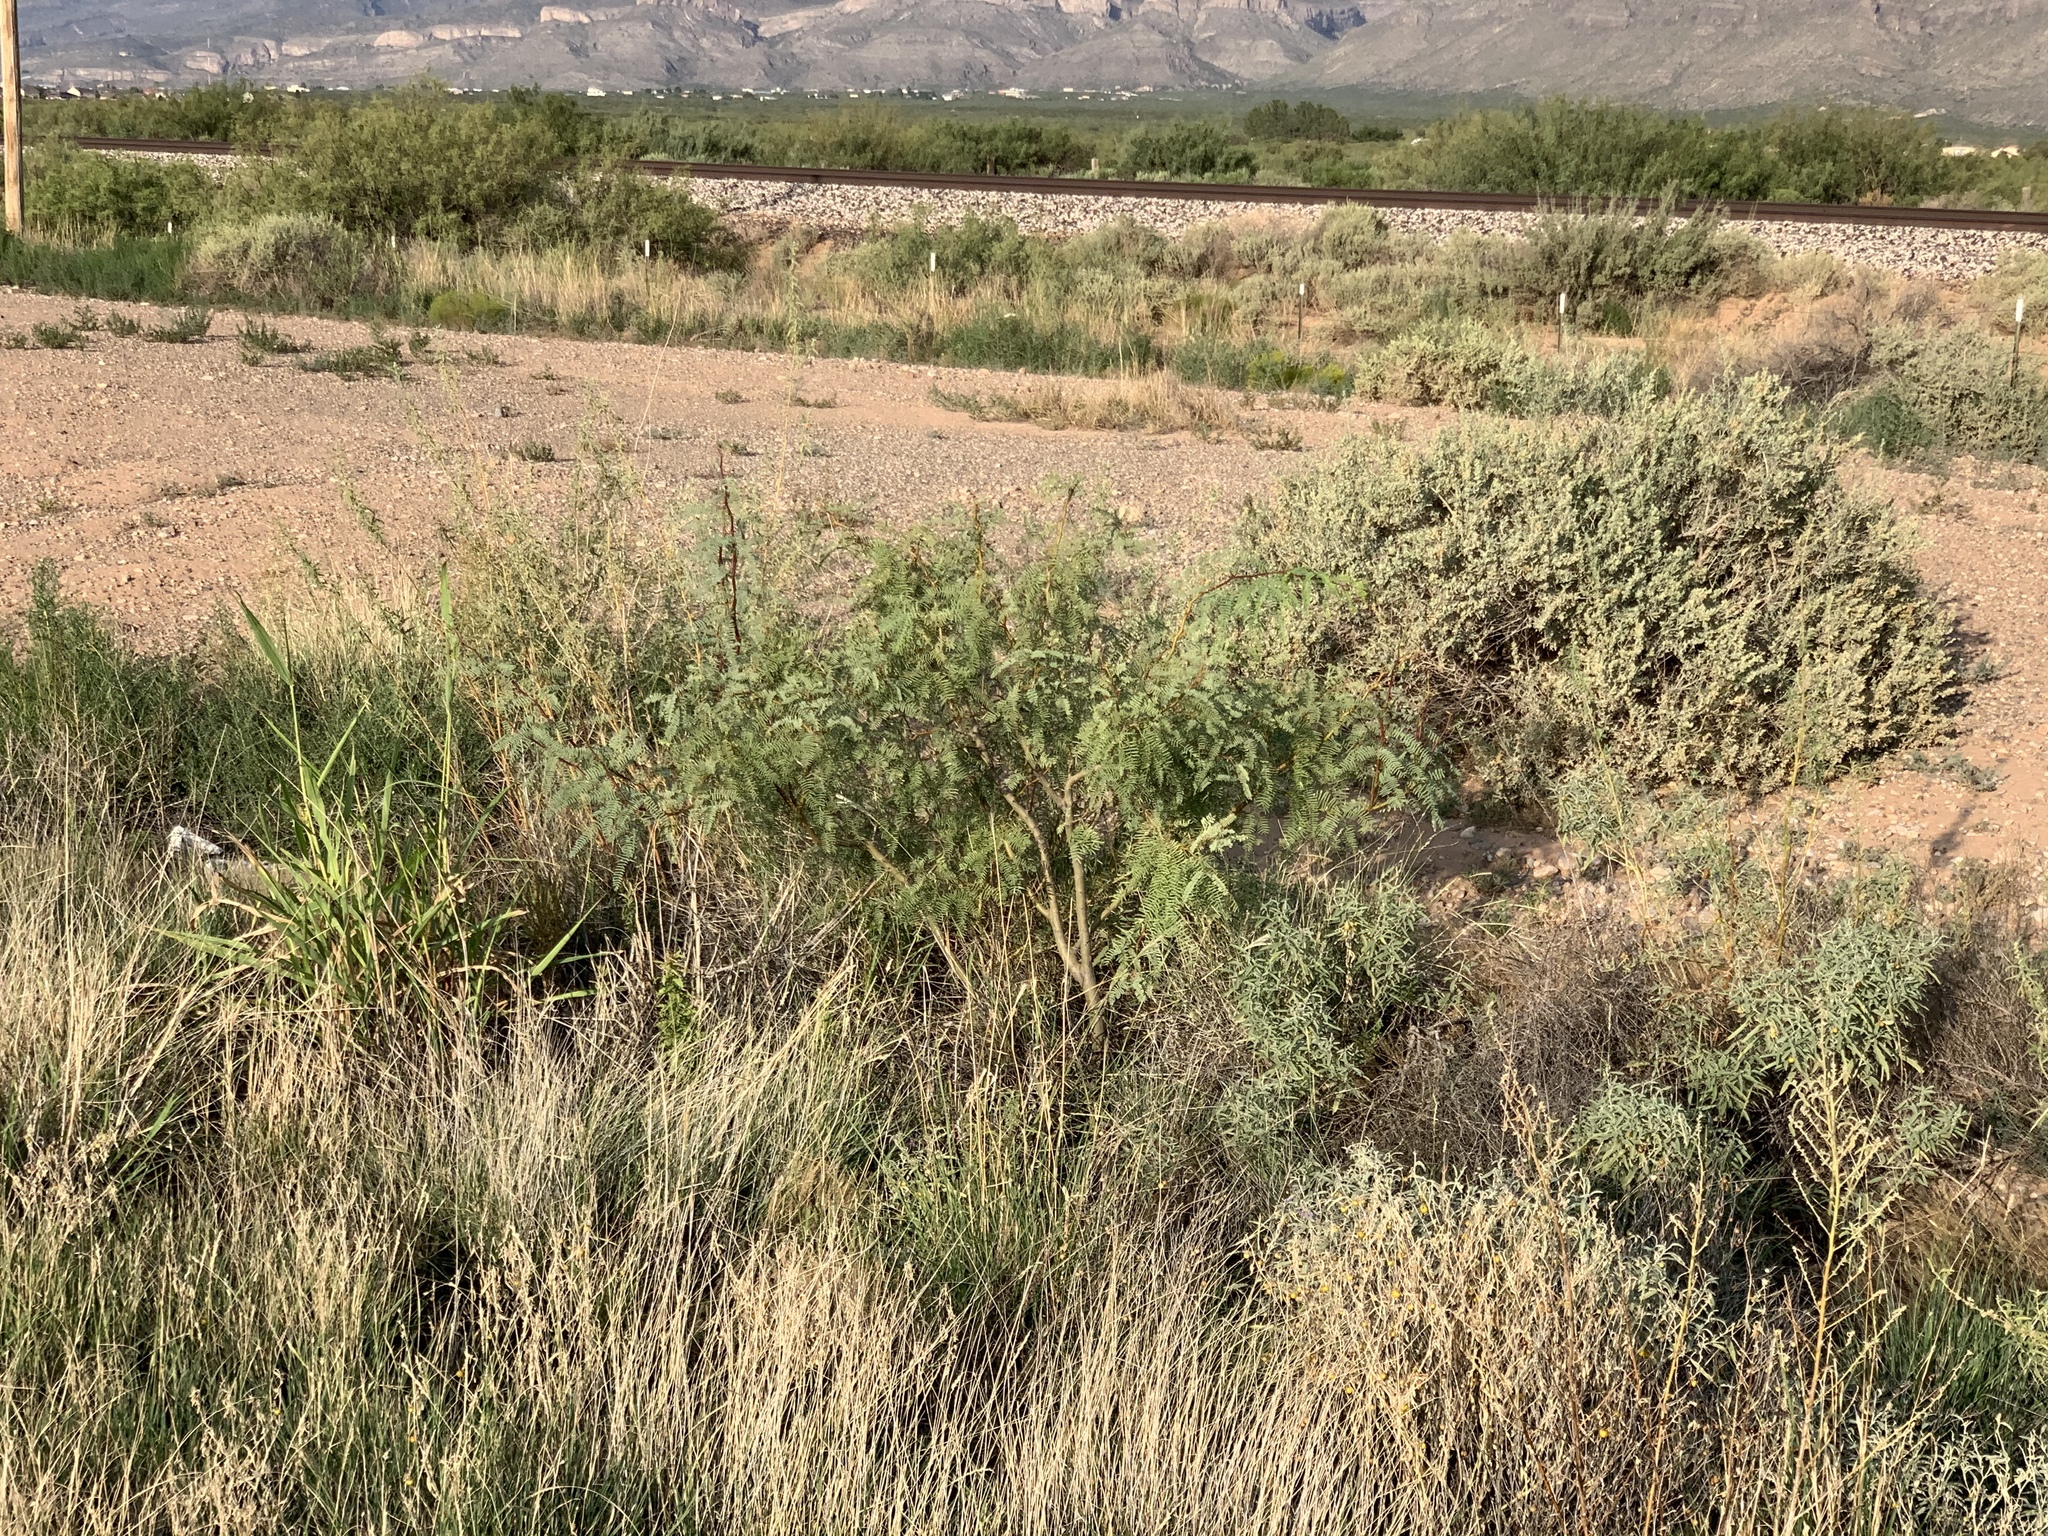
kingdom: Plantae
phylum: Tracheophyta
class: Magnoliopsida
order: Fabales
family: Fabaceae
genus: Prosopis
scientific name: Prosopis glandulosa
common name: Honey mesquite
